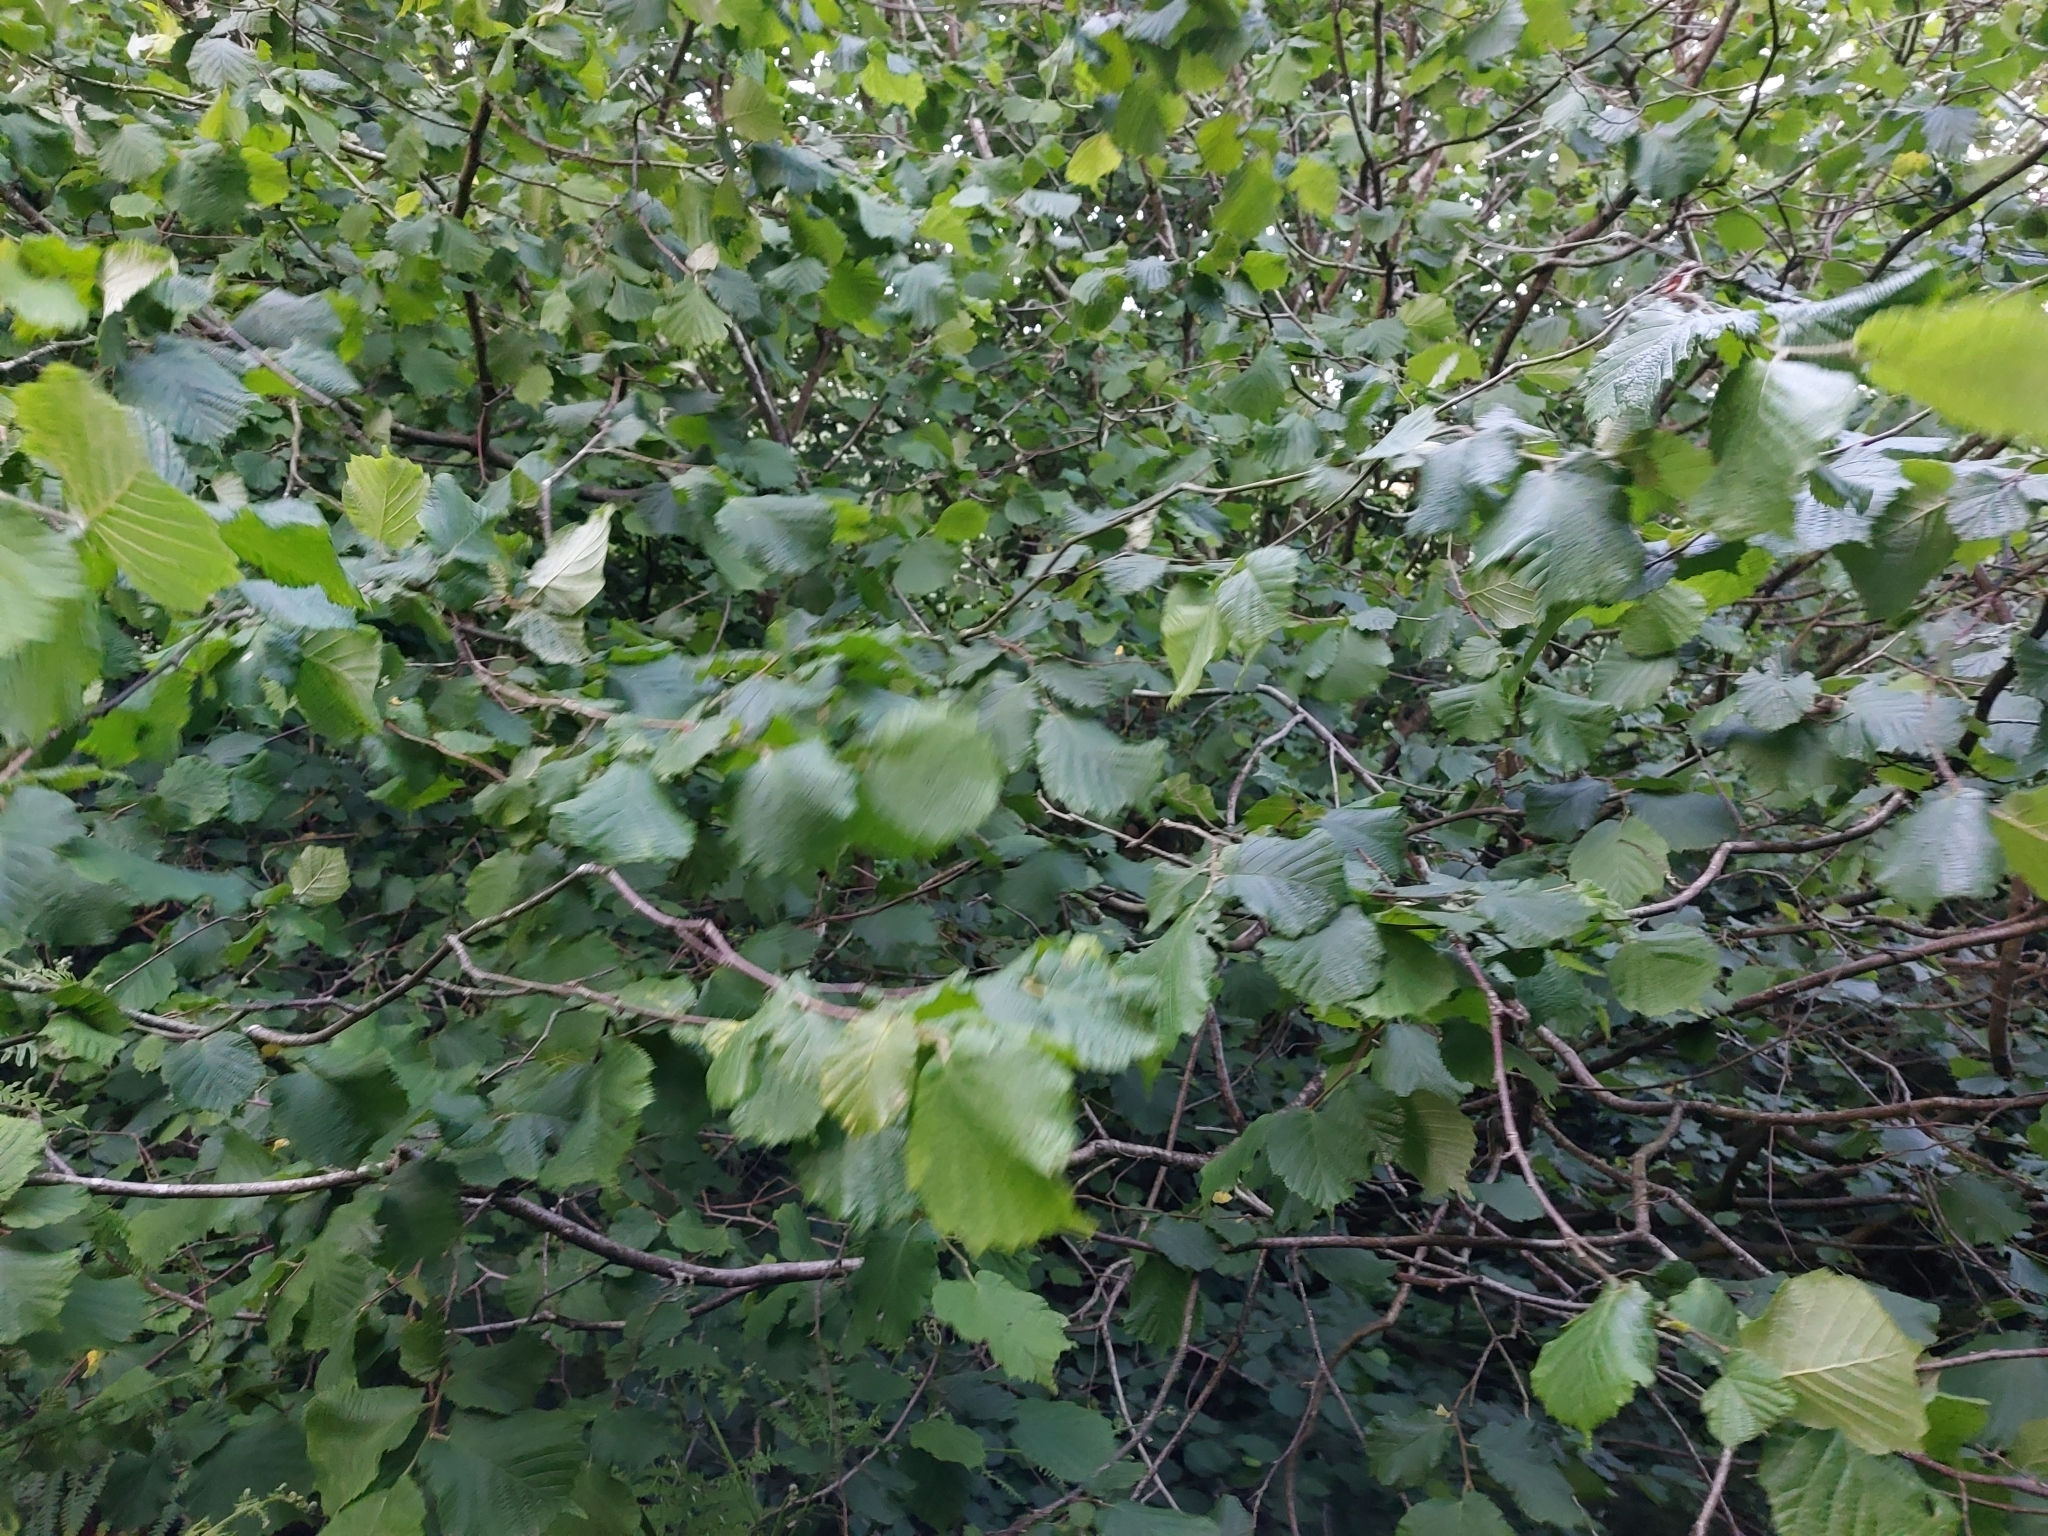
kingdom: Plantae
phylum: Tracheophyta
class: Magnoliopsida
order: Fagales
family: Betulaceae
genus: Corylus
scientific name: Corylus avellana
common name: European hazel
